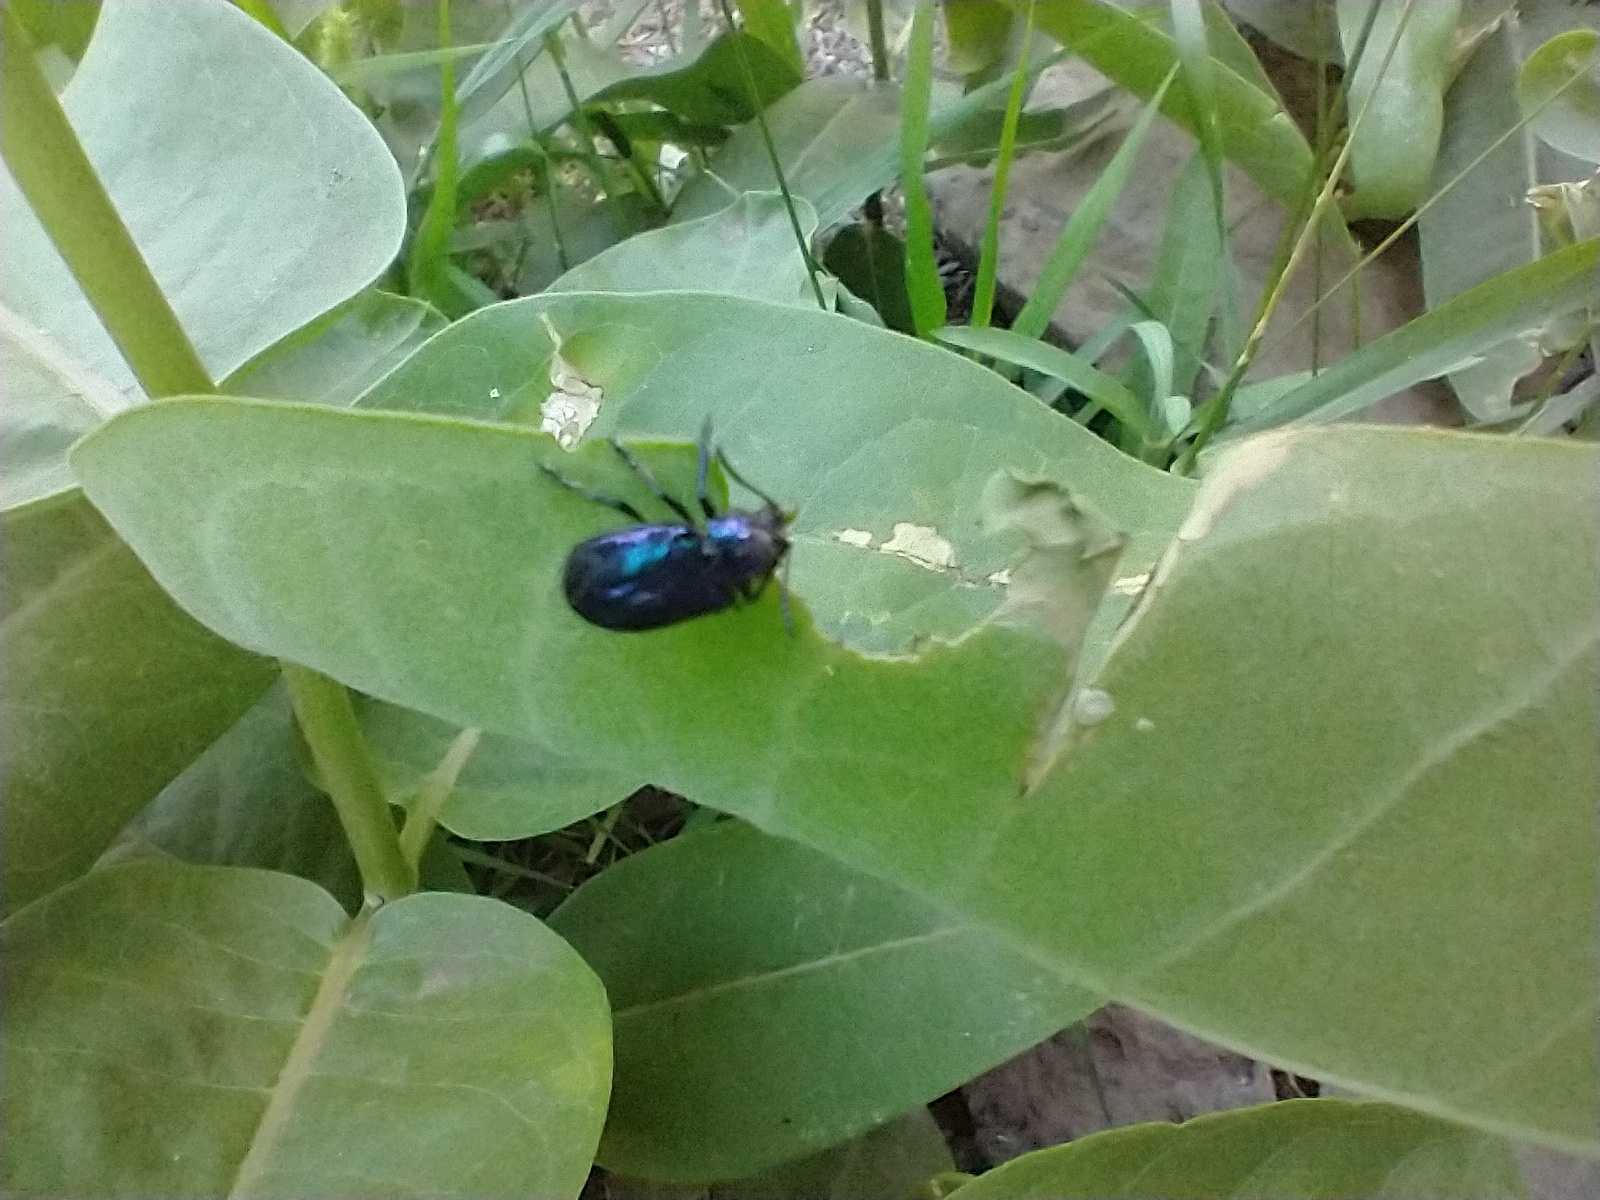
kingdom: Animalia
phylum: Arthropoda
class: Insecta
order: Coleoptera
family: Chrysomelidae
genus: Chrysochus
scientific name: Chrysochus cobaltinus
